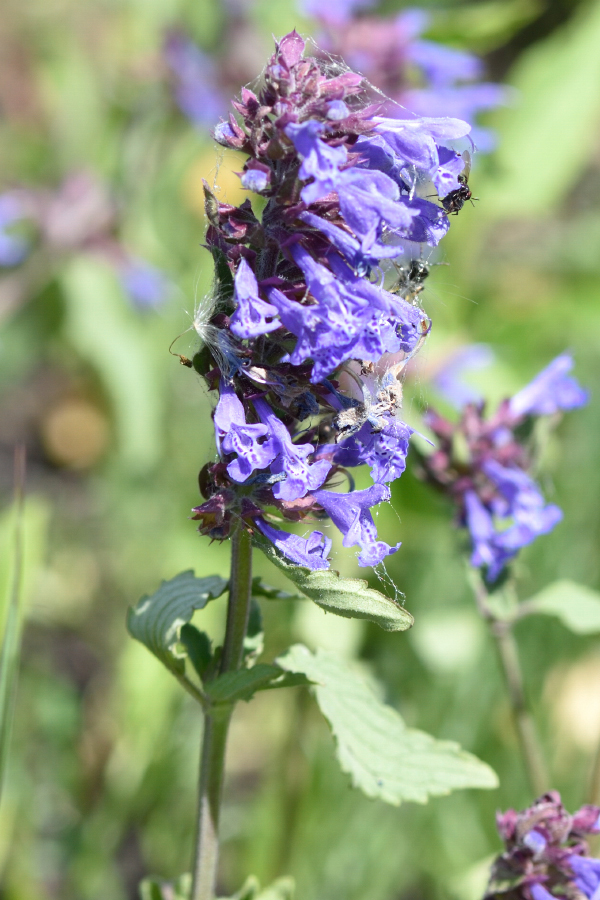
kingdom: Plantae
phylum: Tracheophyta
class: Magnoliopsida
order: Lamiales
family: Lamiaceae
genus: Dracocephalum
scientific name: Dracocephalum nutans
